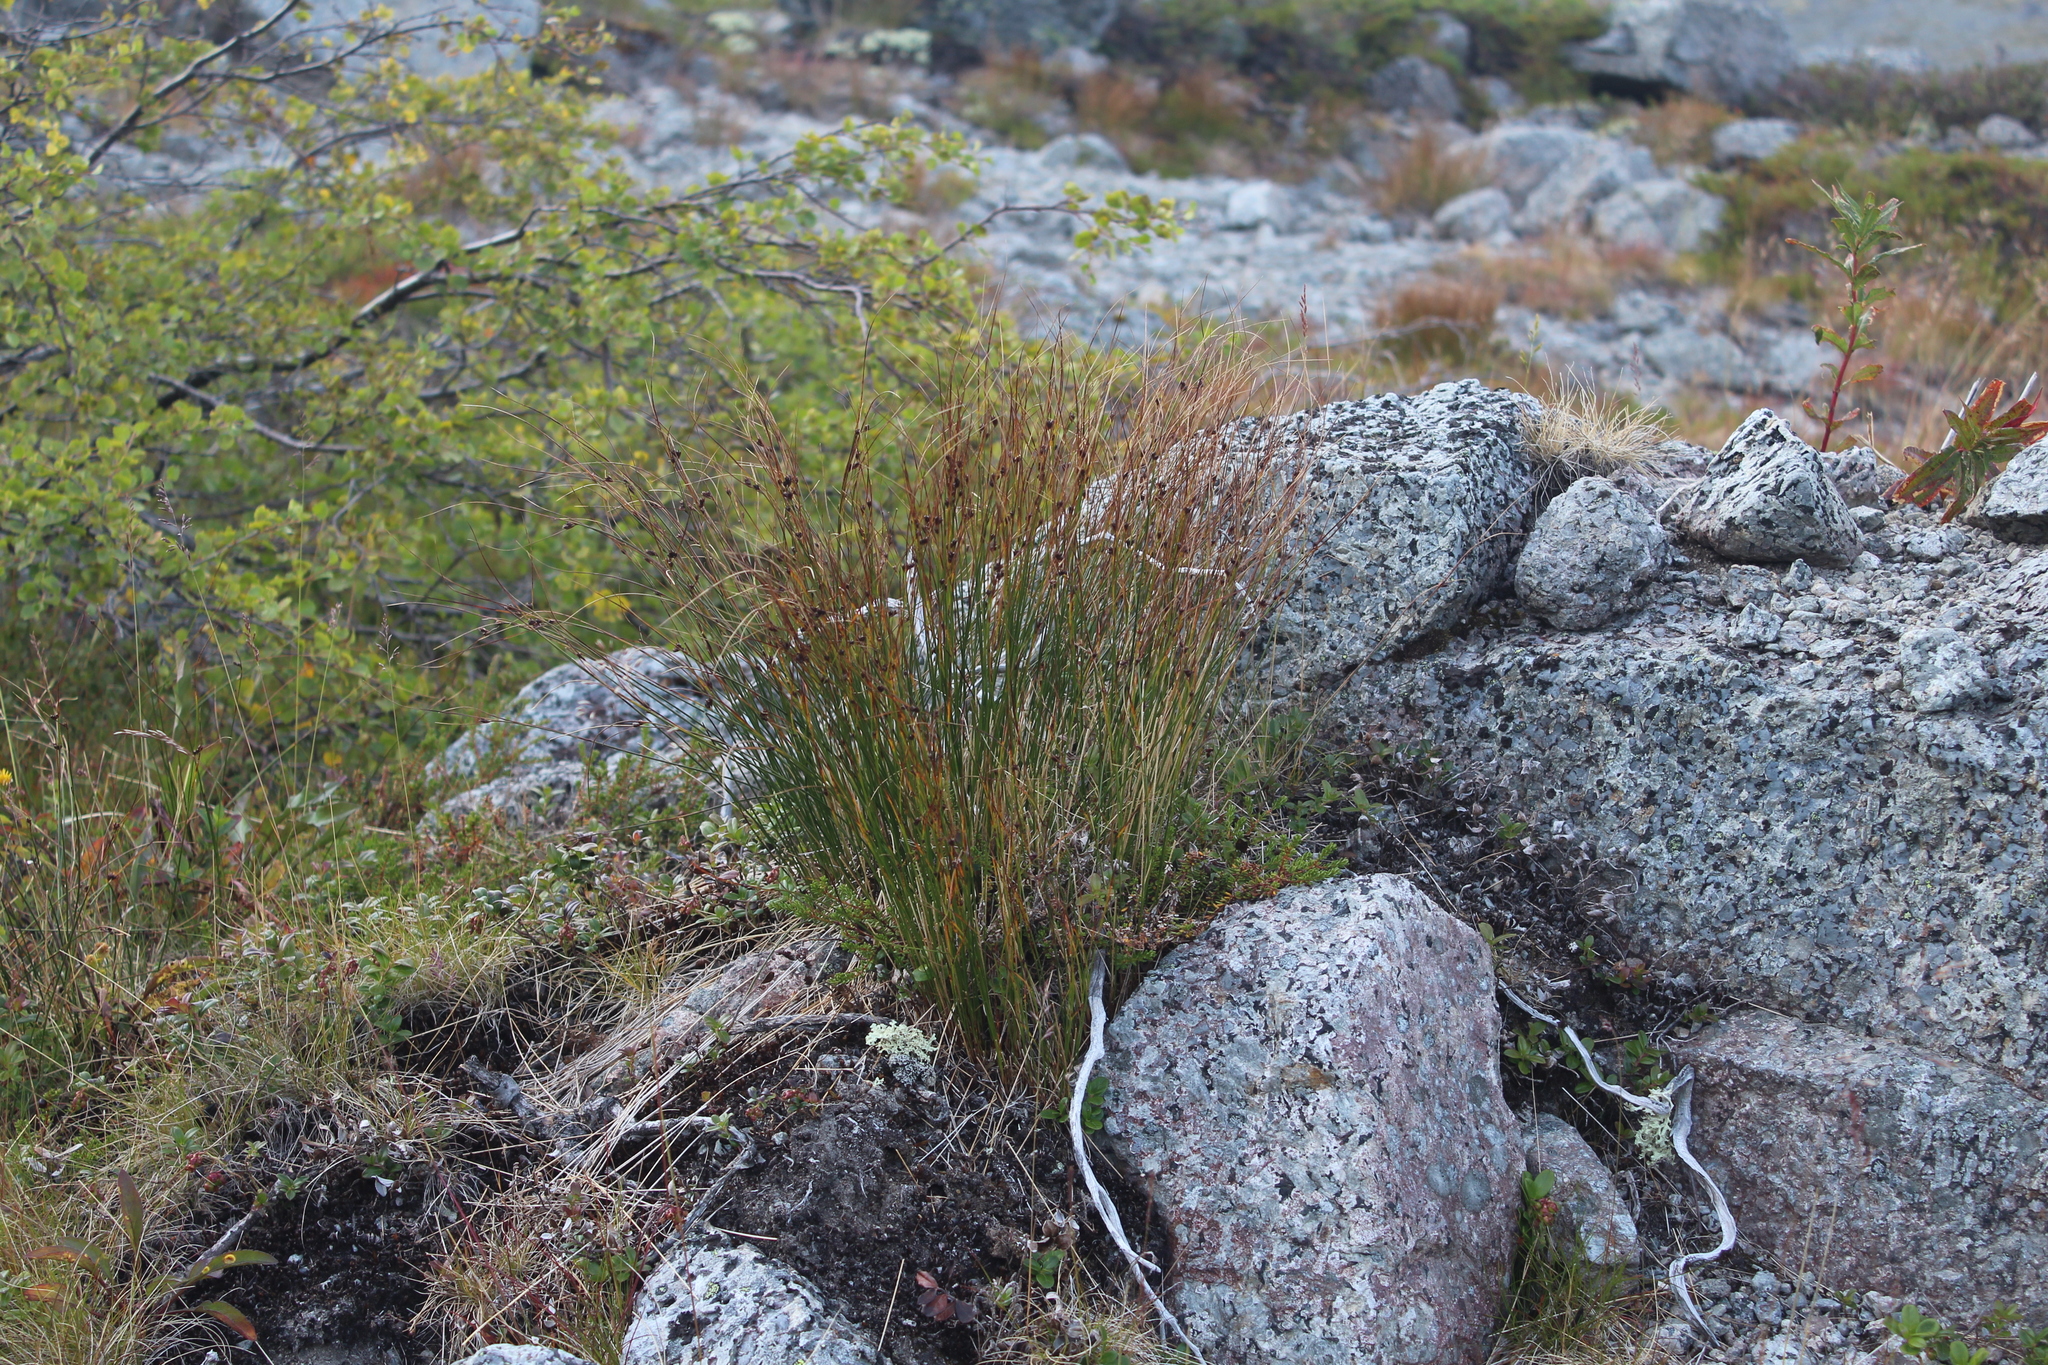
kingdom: Plantae
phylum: Tracheophyta
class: Liliopsida
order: Poales
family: Juncaceae
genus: Oreojuncus
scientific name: Oreojuncus trifidus
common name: Highland rush
